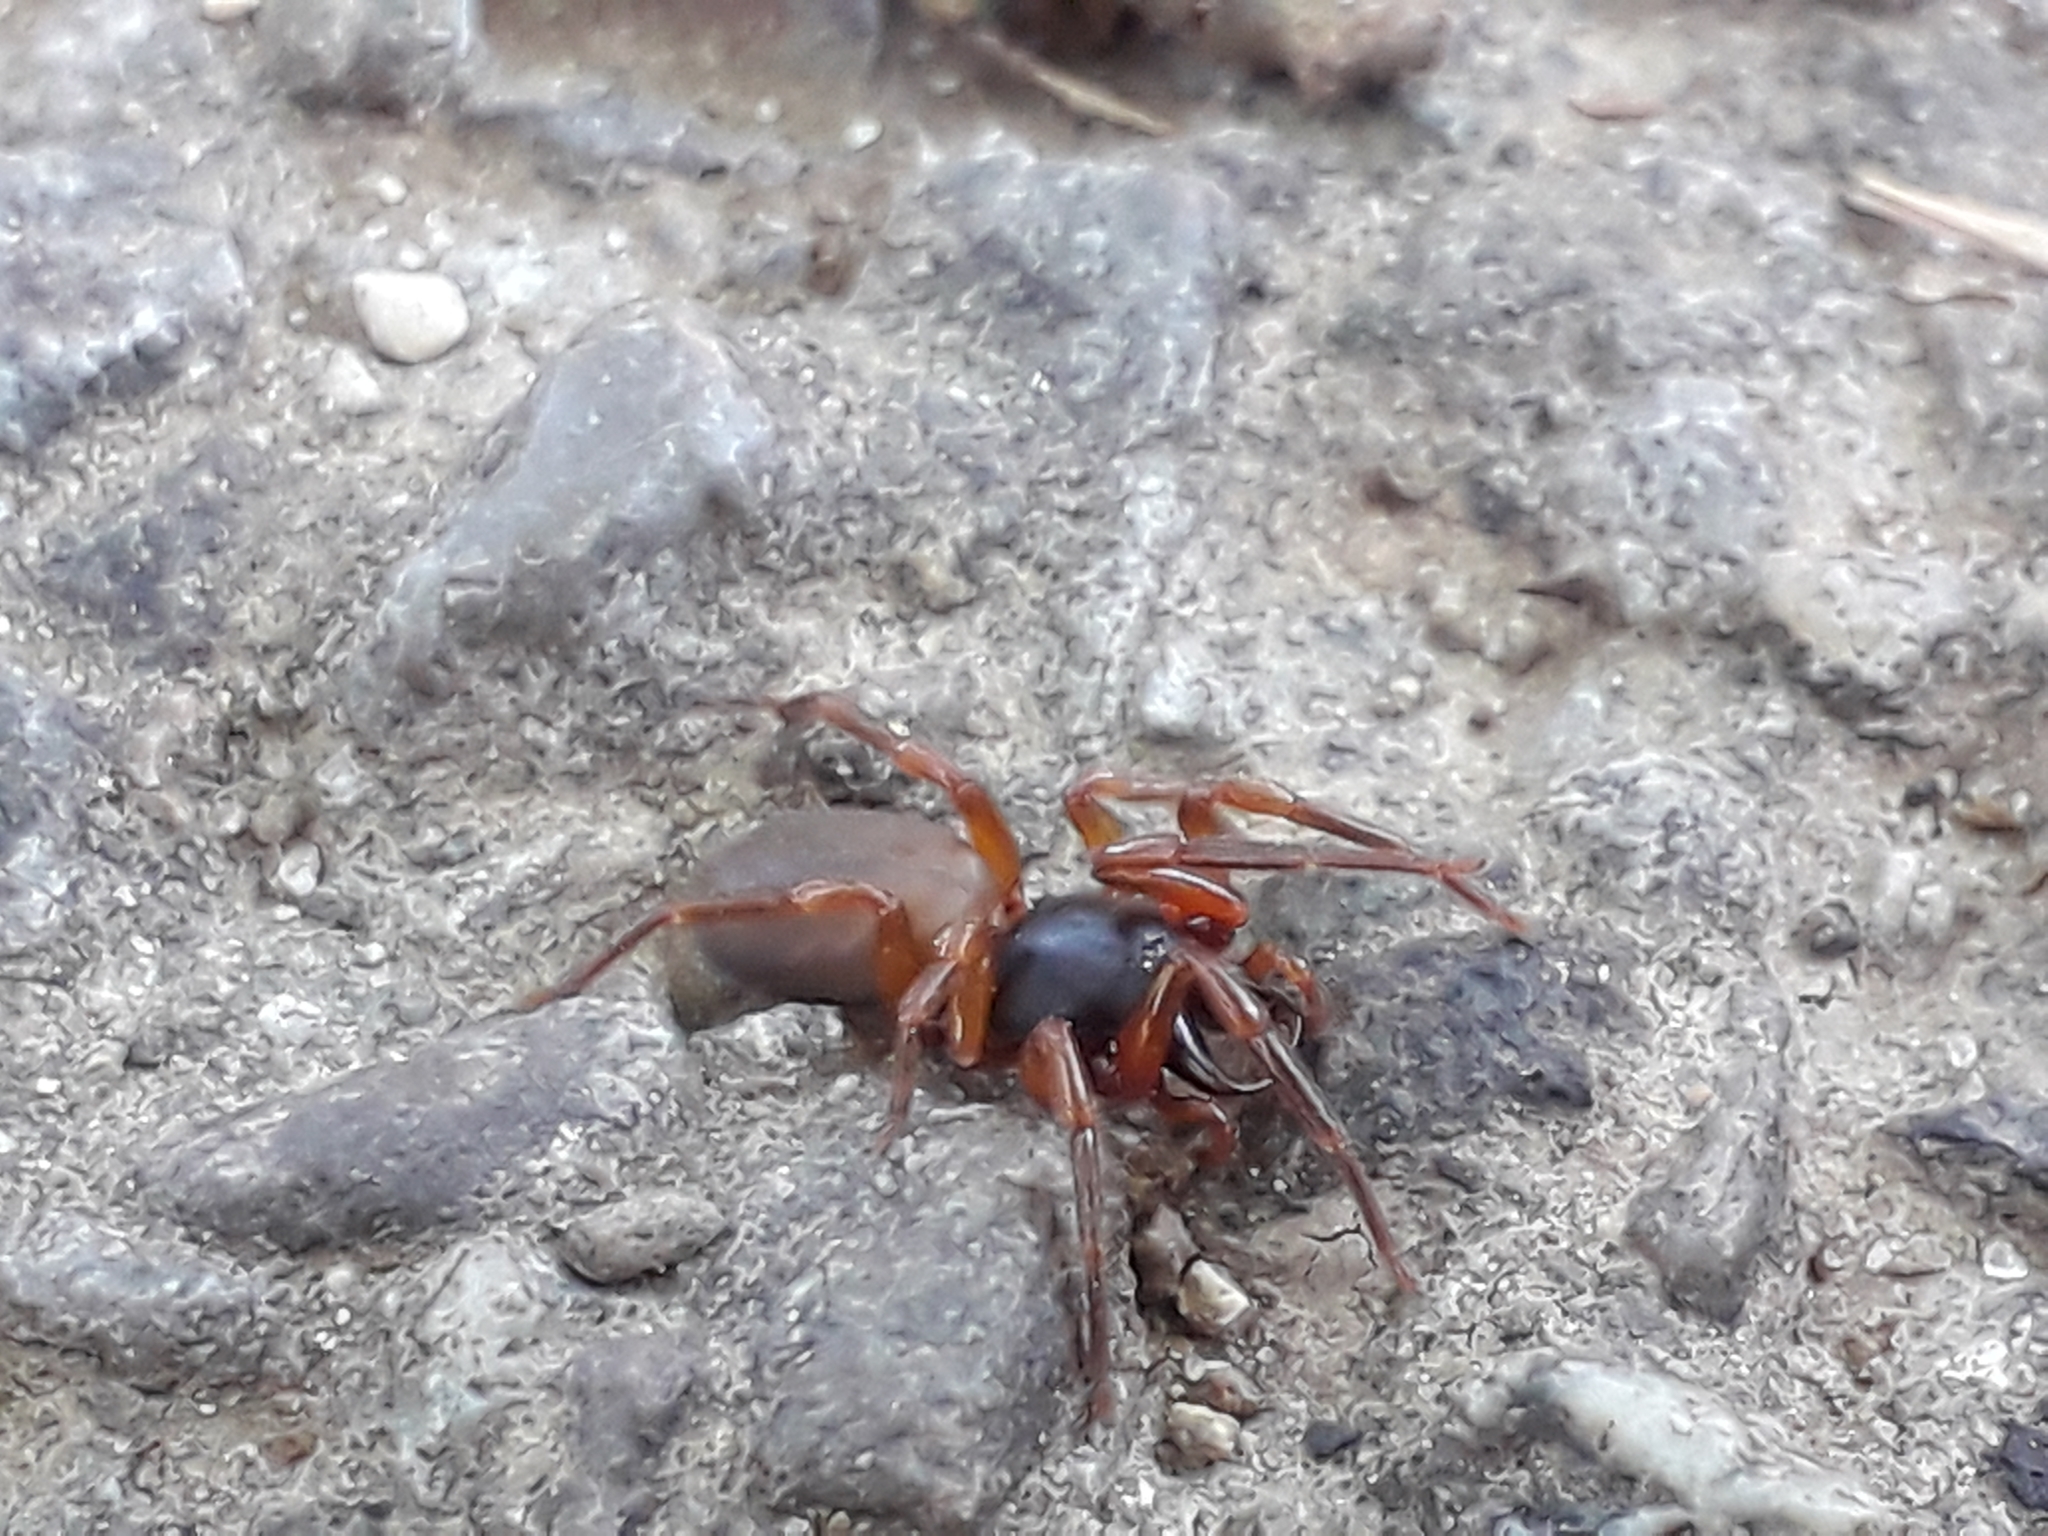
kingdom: Animalia
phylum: Arthropoda
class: Arachnida
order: Araneae
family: Dysderidae
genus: Dysdera
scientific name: Dysdera
